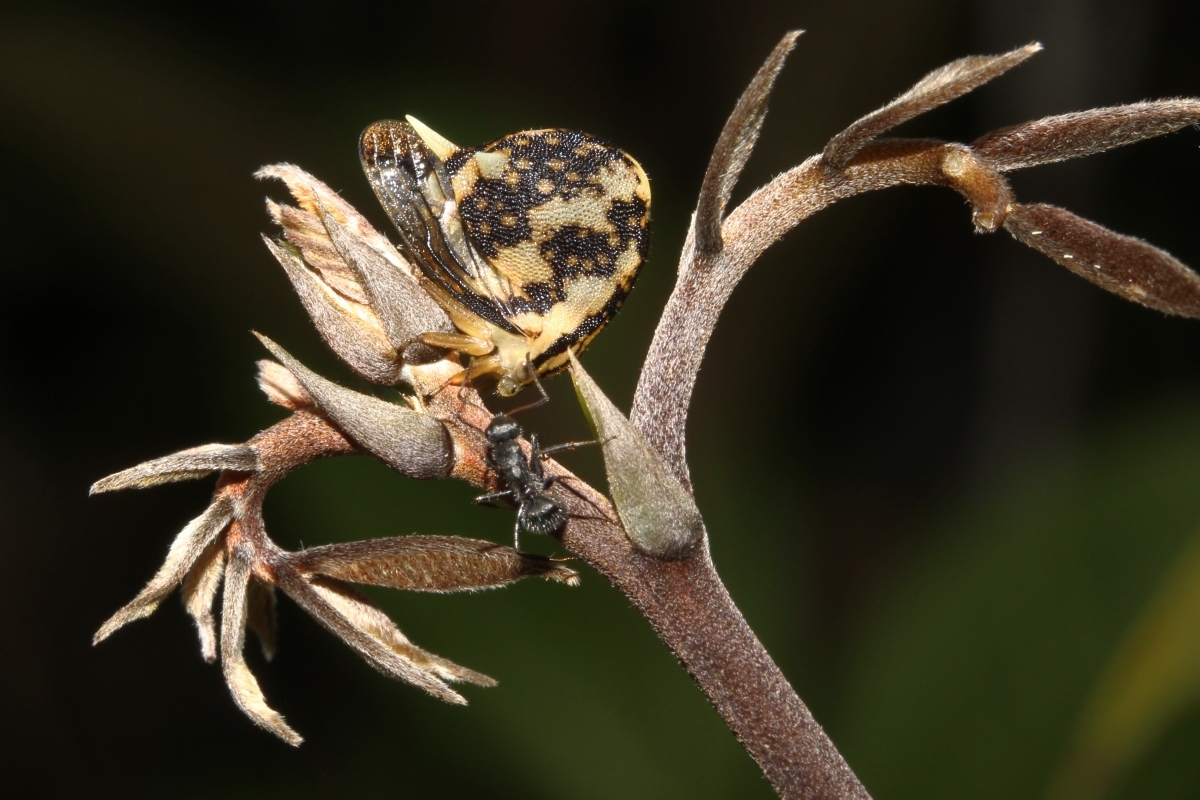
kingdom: Animalia
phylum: Arthropoda
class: Insecta
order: Hemiptera
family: Membracidae
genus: Anchistrotus
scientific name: Anchistrotus
